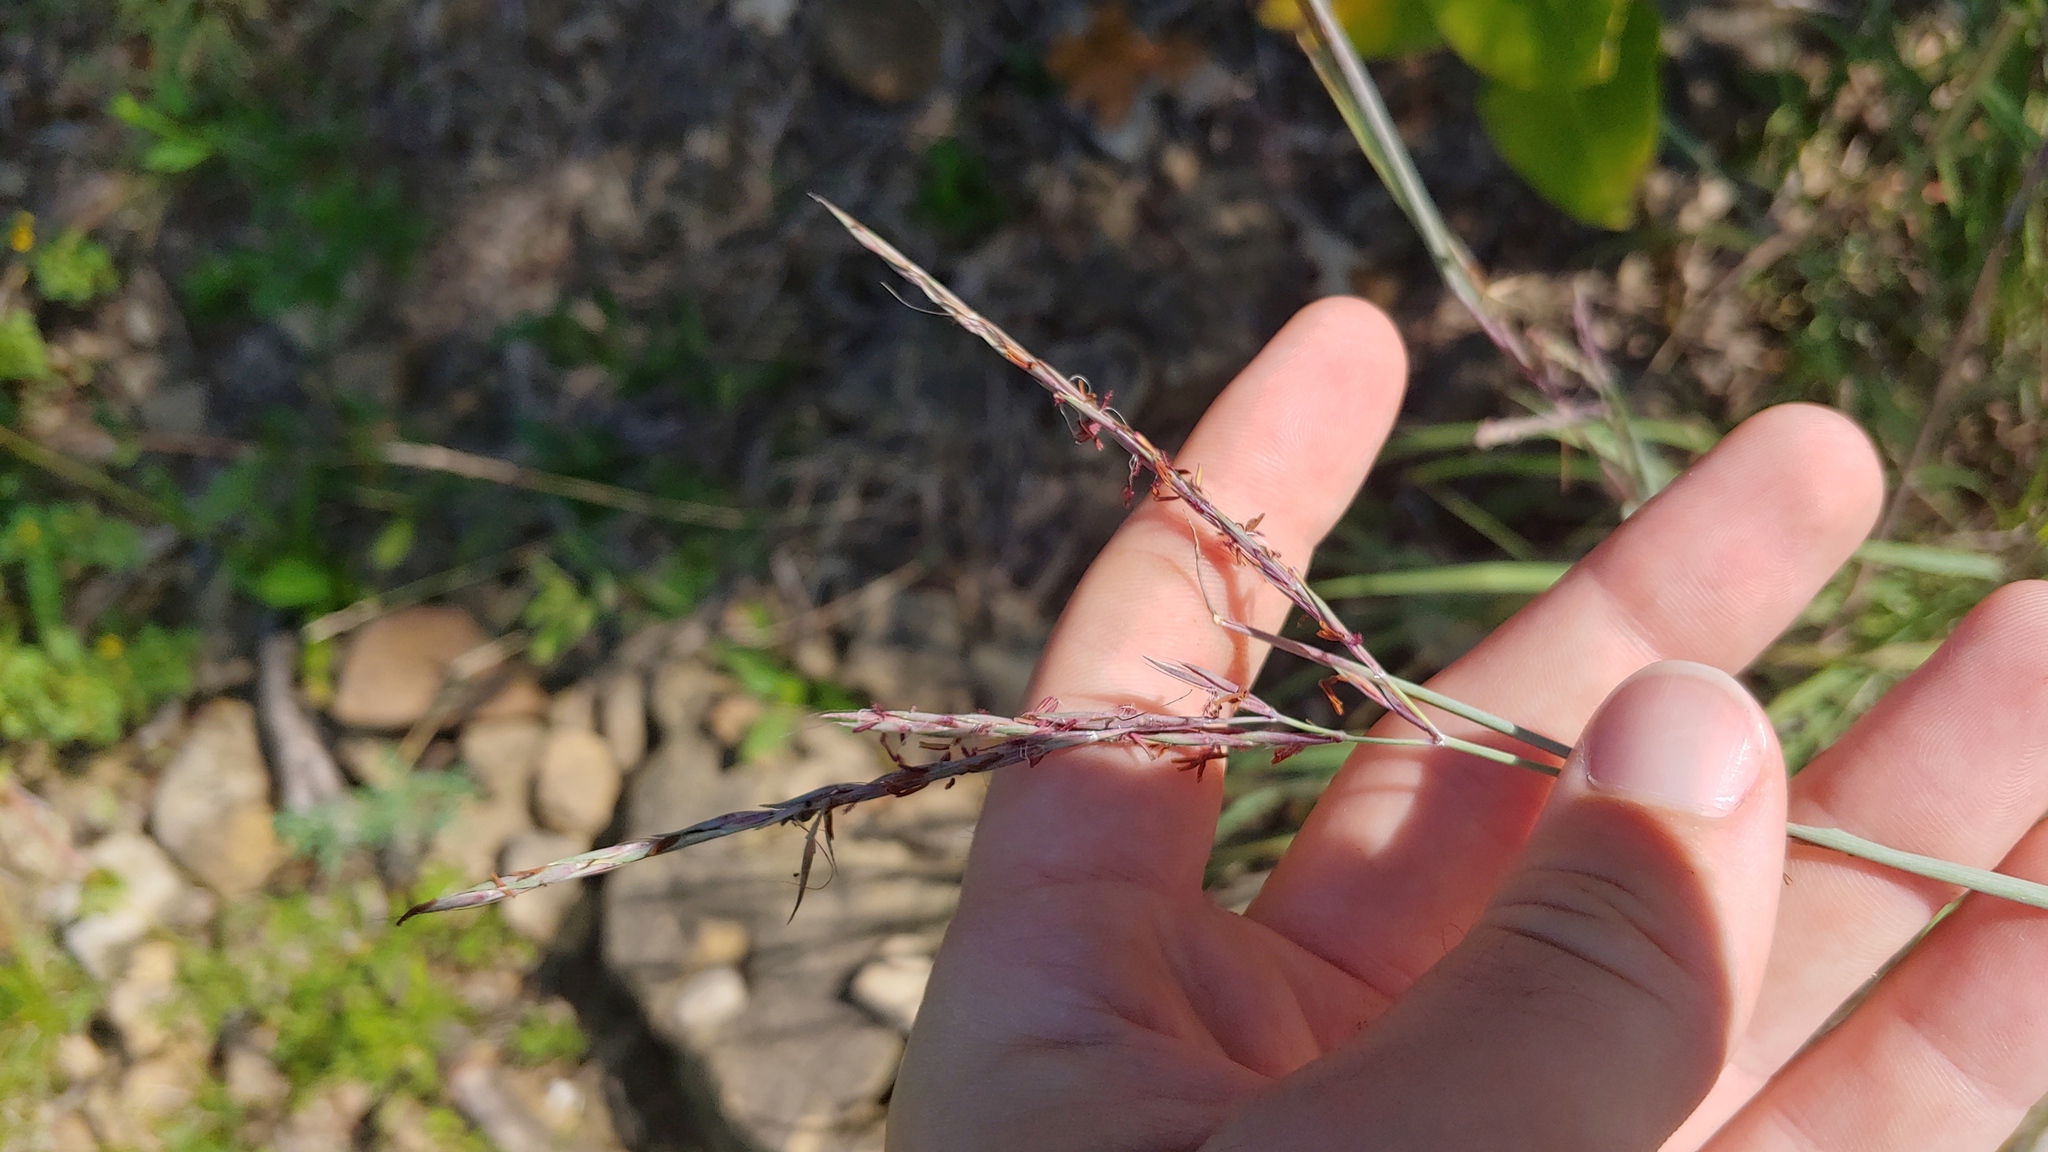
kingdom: Plantae
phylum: Tracheophyta
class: Liliopsida
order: Poales
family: Poaceae
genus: Andropogon
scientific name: Andropogon gerardi
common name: Big bluestem
